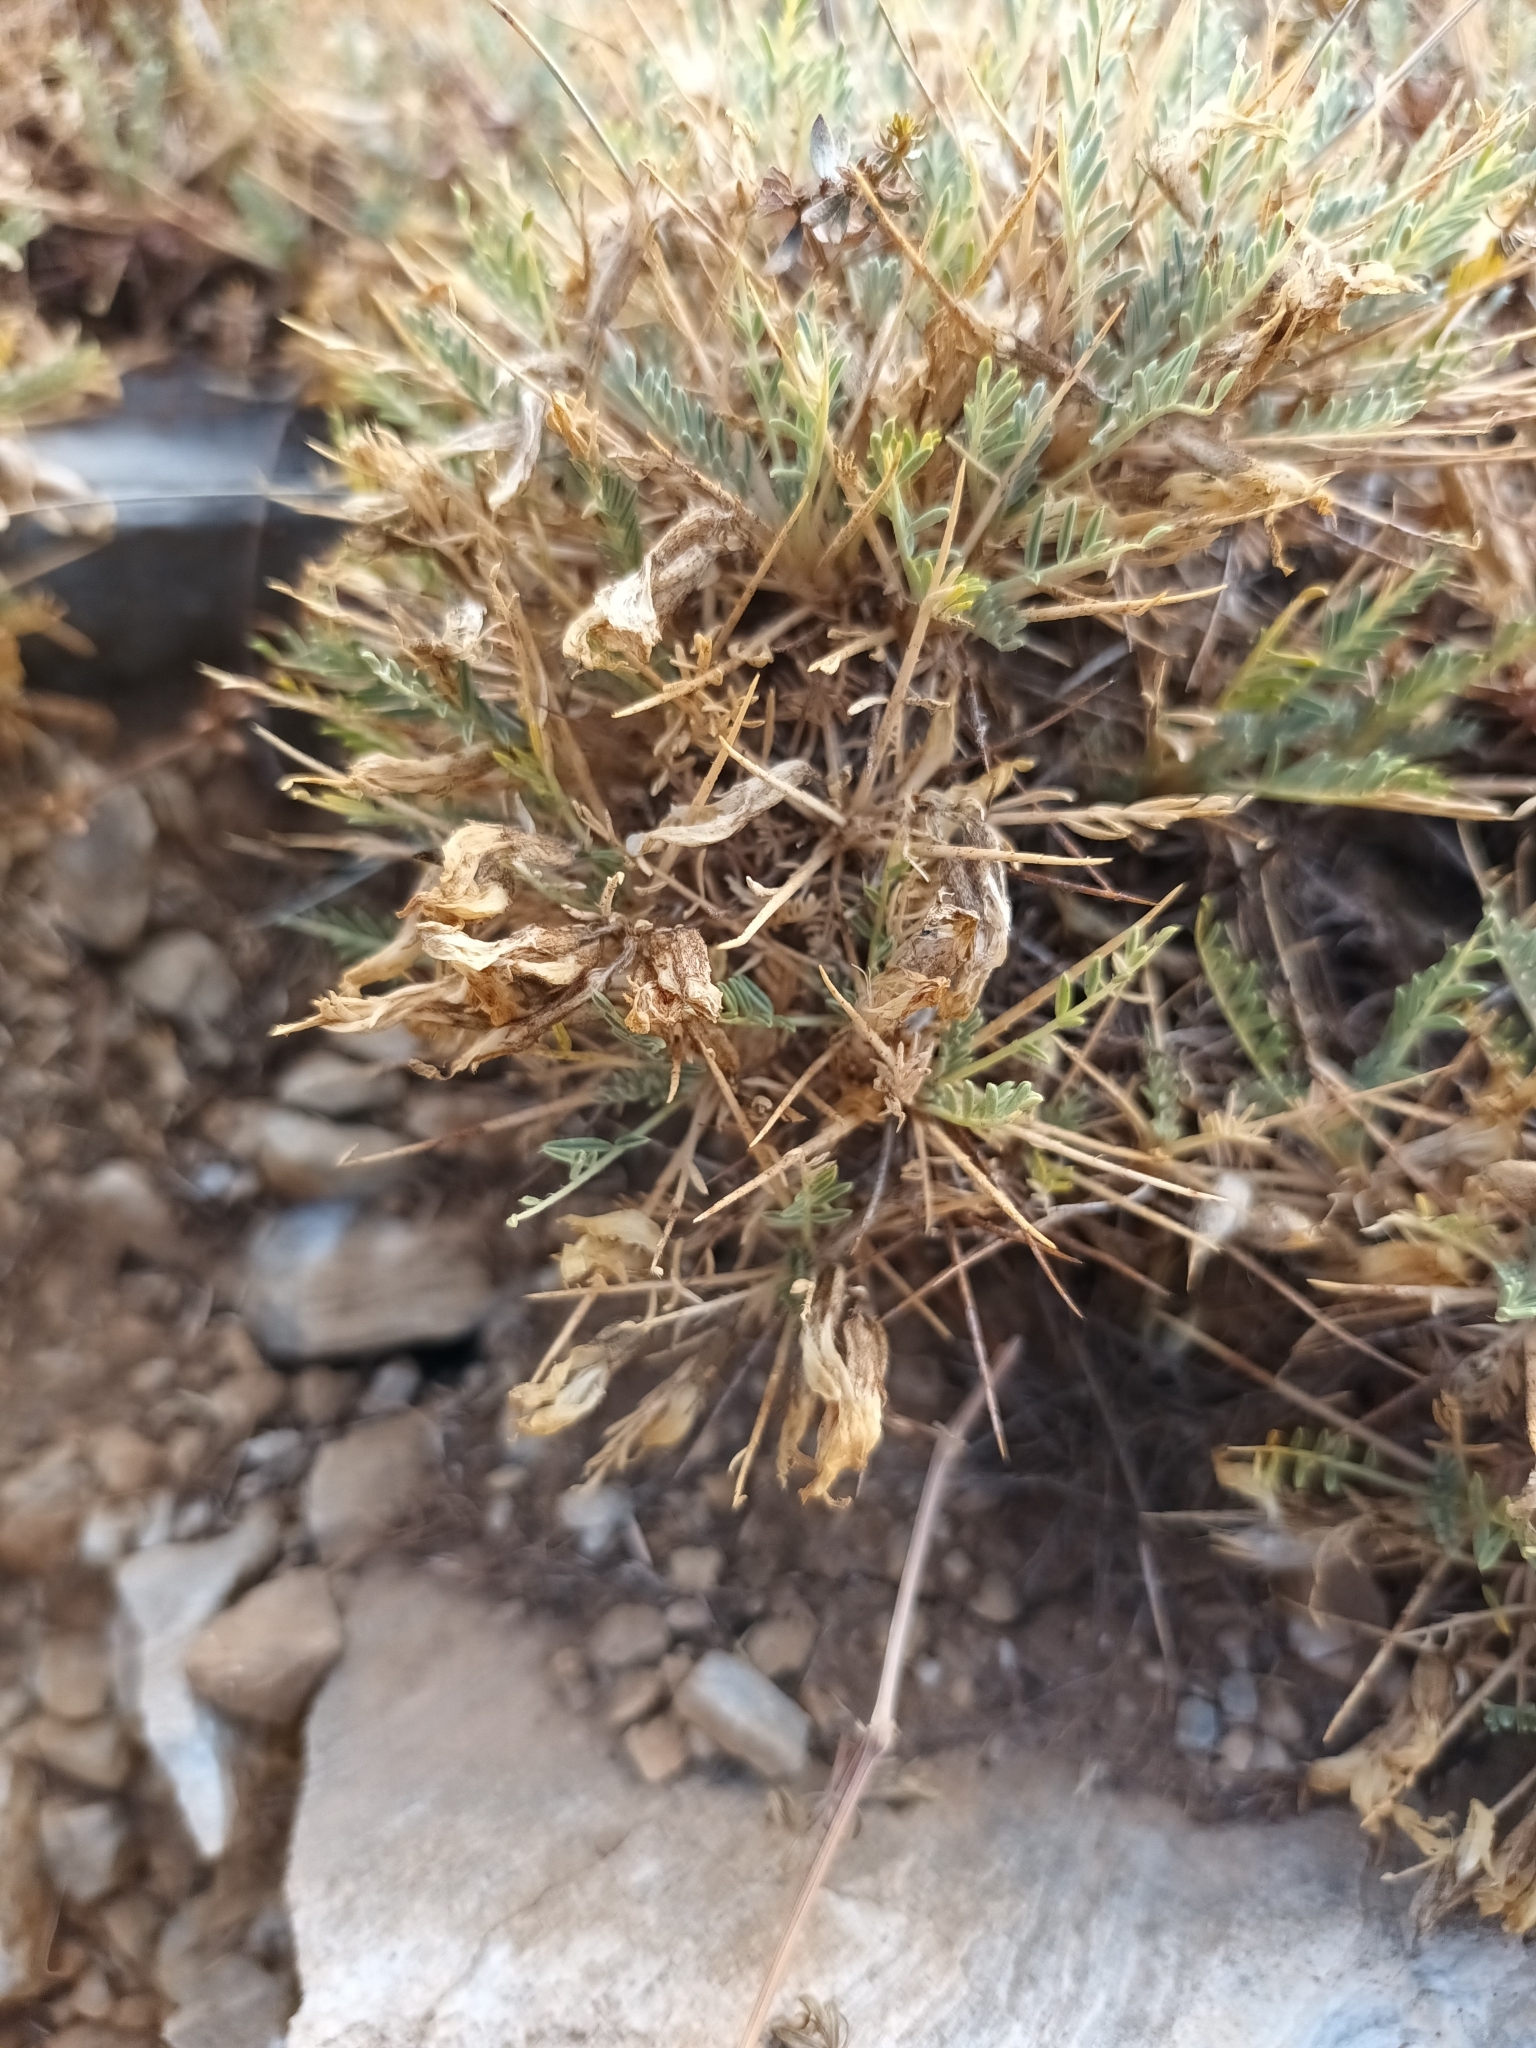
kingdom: Plantae
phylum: Tracheophyta
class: Magnoliopsida
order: Fabales
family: Fabaceae
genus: Astragalus
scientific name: Astragalus angustifolius
